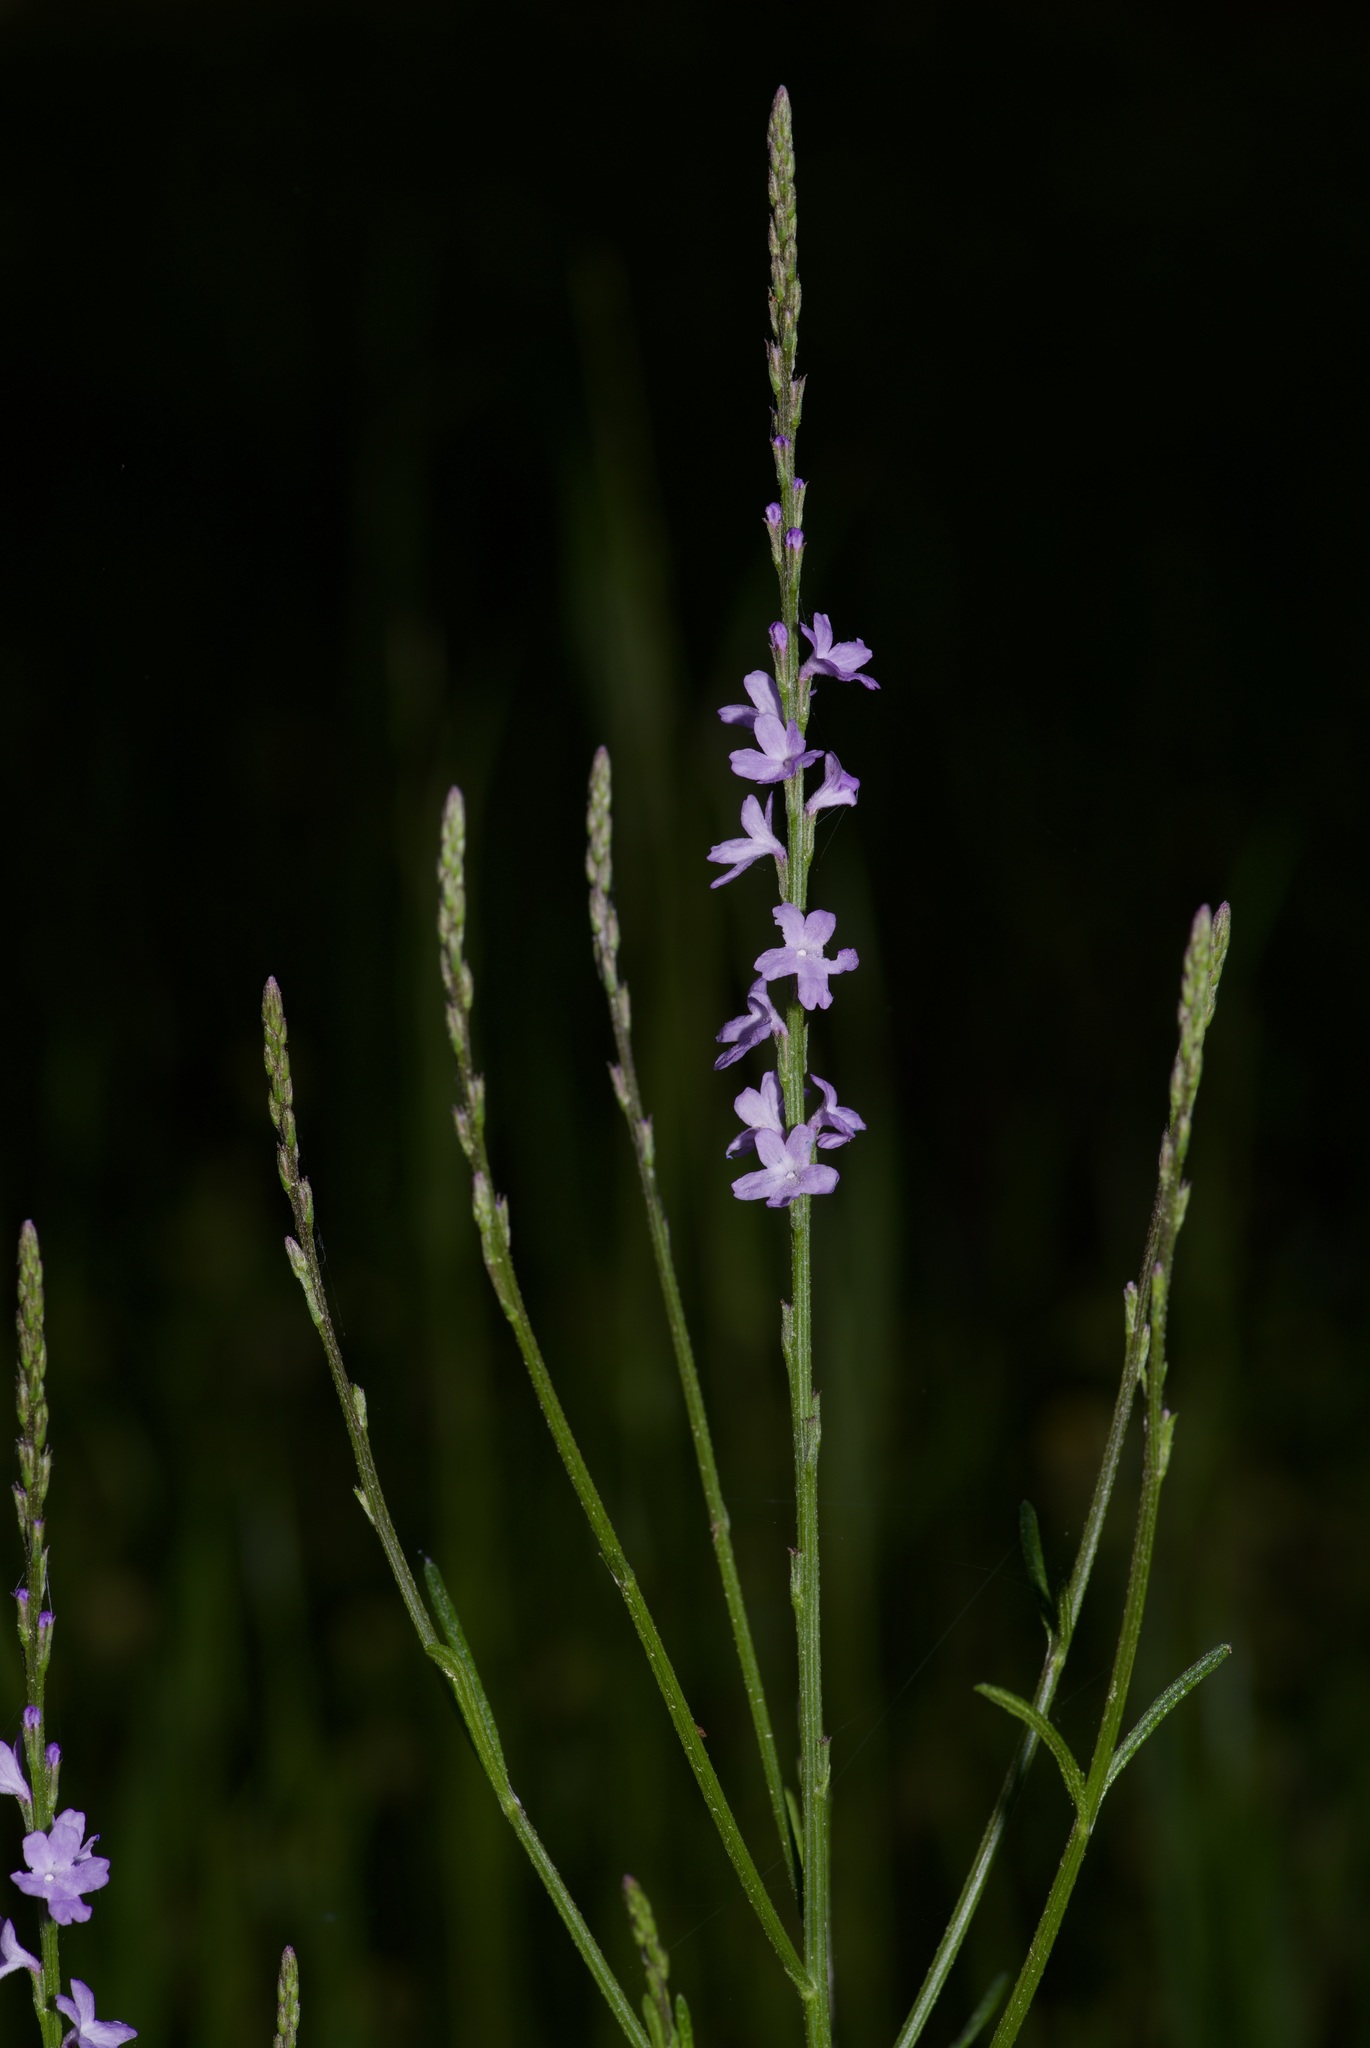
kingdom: Plantae
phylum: Tracheophyta
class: Magnoliopsida
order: Lamiales
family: Verbenaceae
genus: Verbena
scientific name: Verbena halei
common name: Texas vervain
